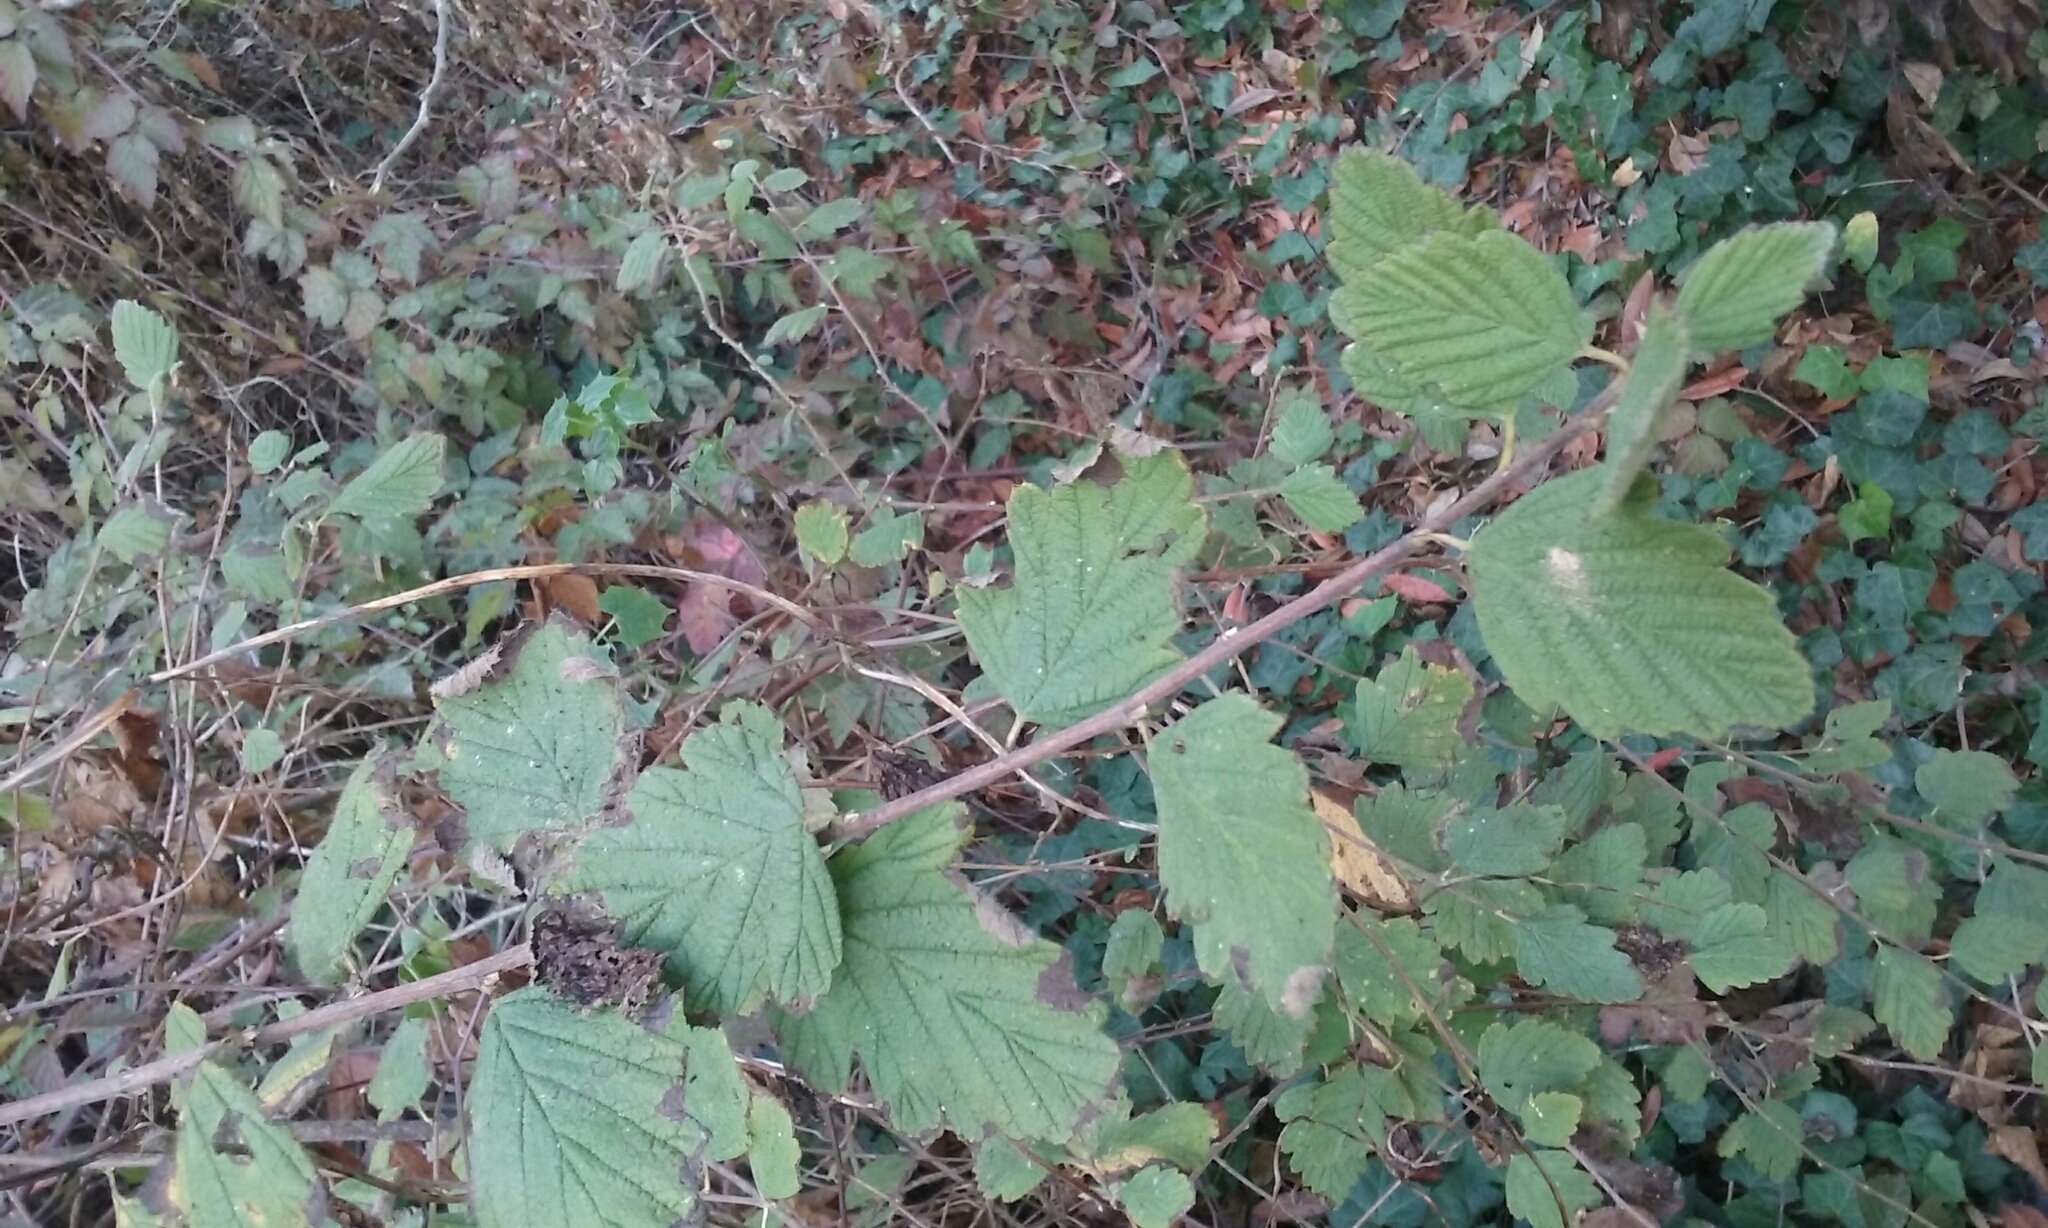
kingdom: Plantae
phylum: Tracheophyta
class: Magnoliopsida
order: Rosales
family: Rosaceae
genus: Holodiscus
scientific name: Holodiscus discolor
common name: Oceanspray
